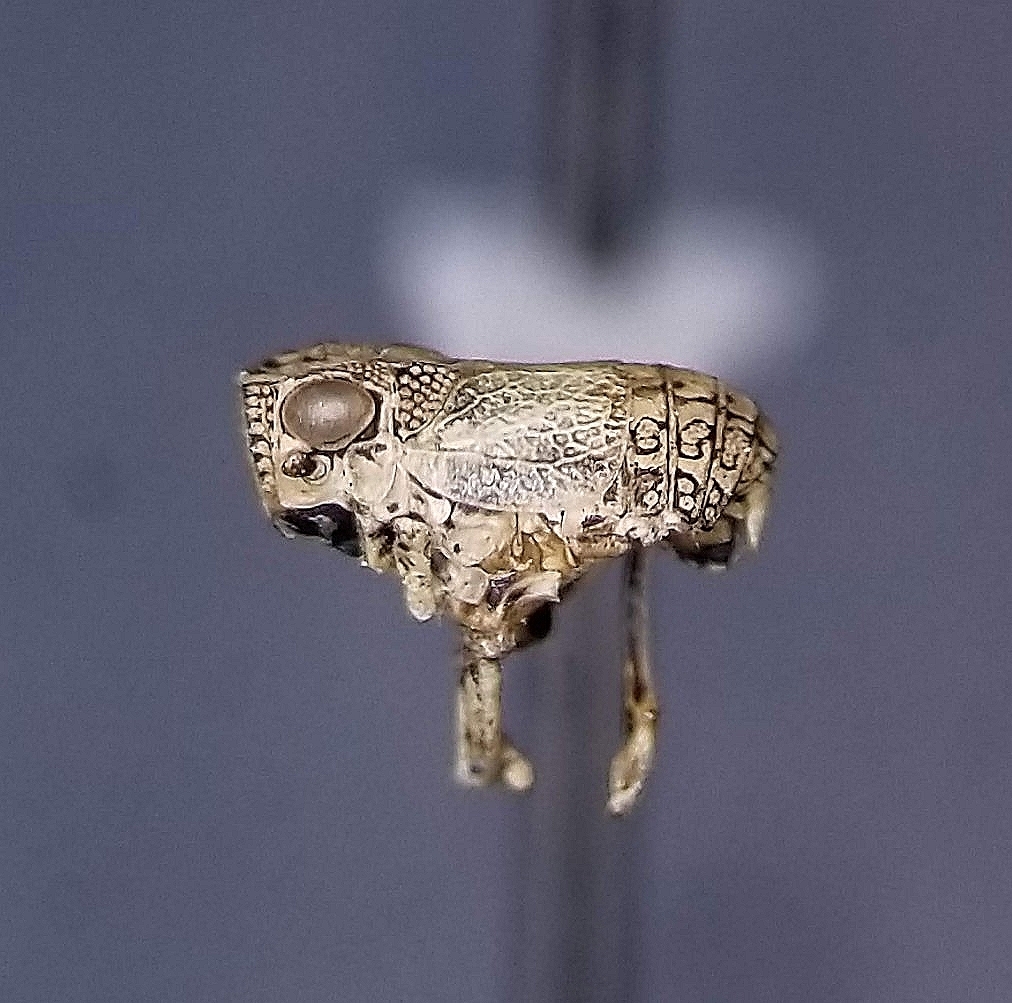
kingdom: Animalia
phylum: Arthropoda
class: Insecta
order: Hemiptera
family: Caliscelidae
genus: Nenema
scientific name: Nenema rugosa
